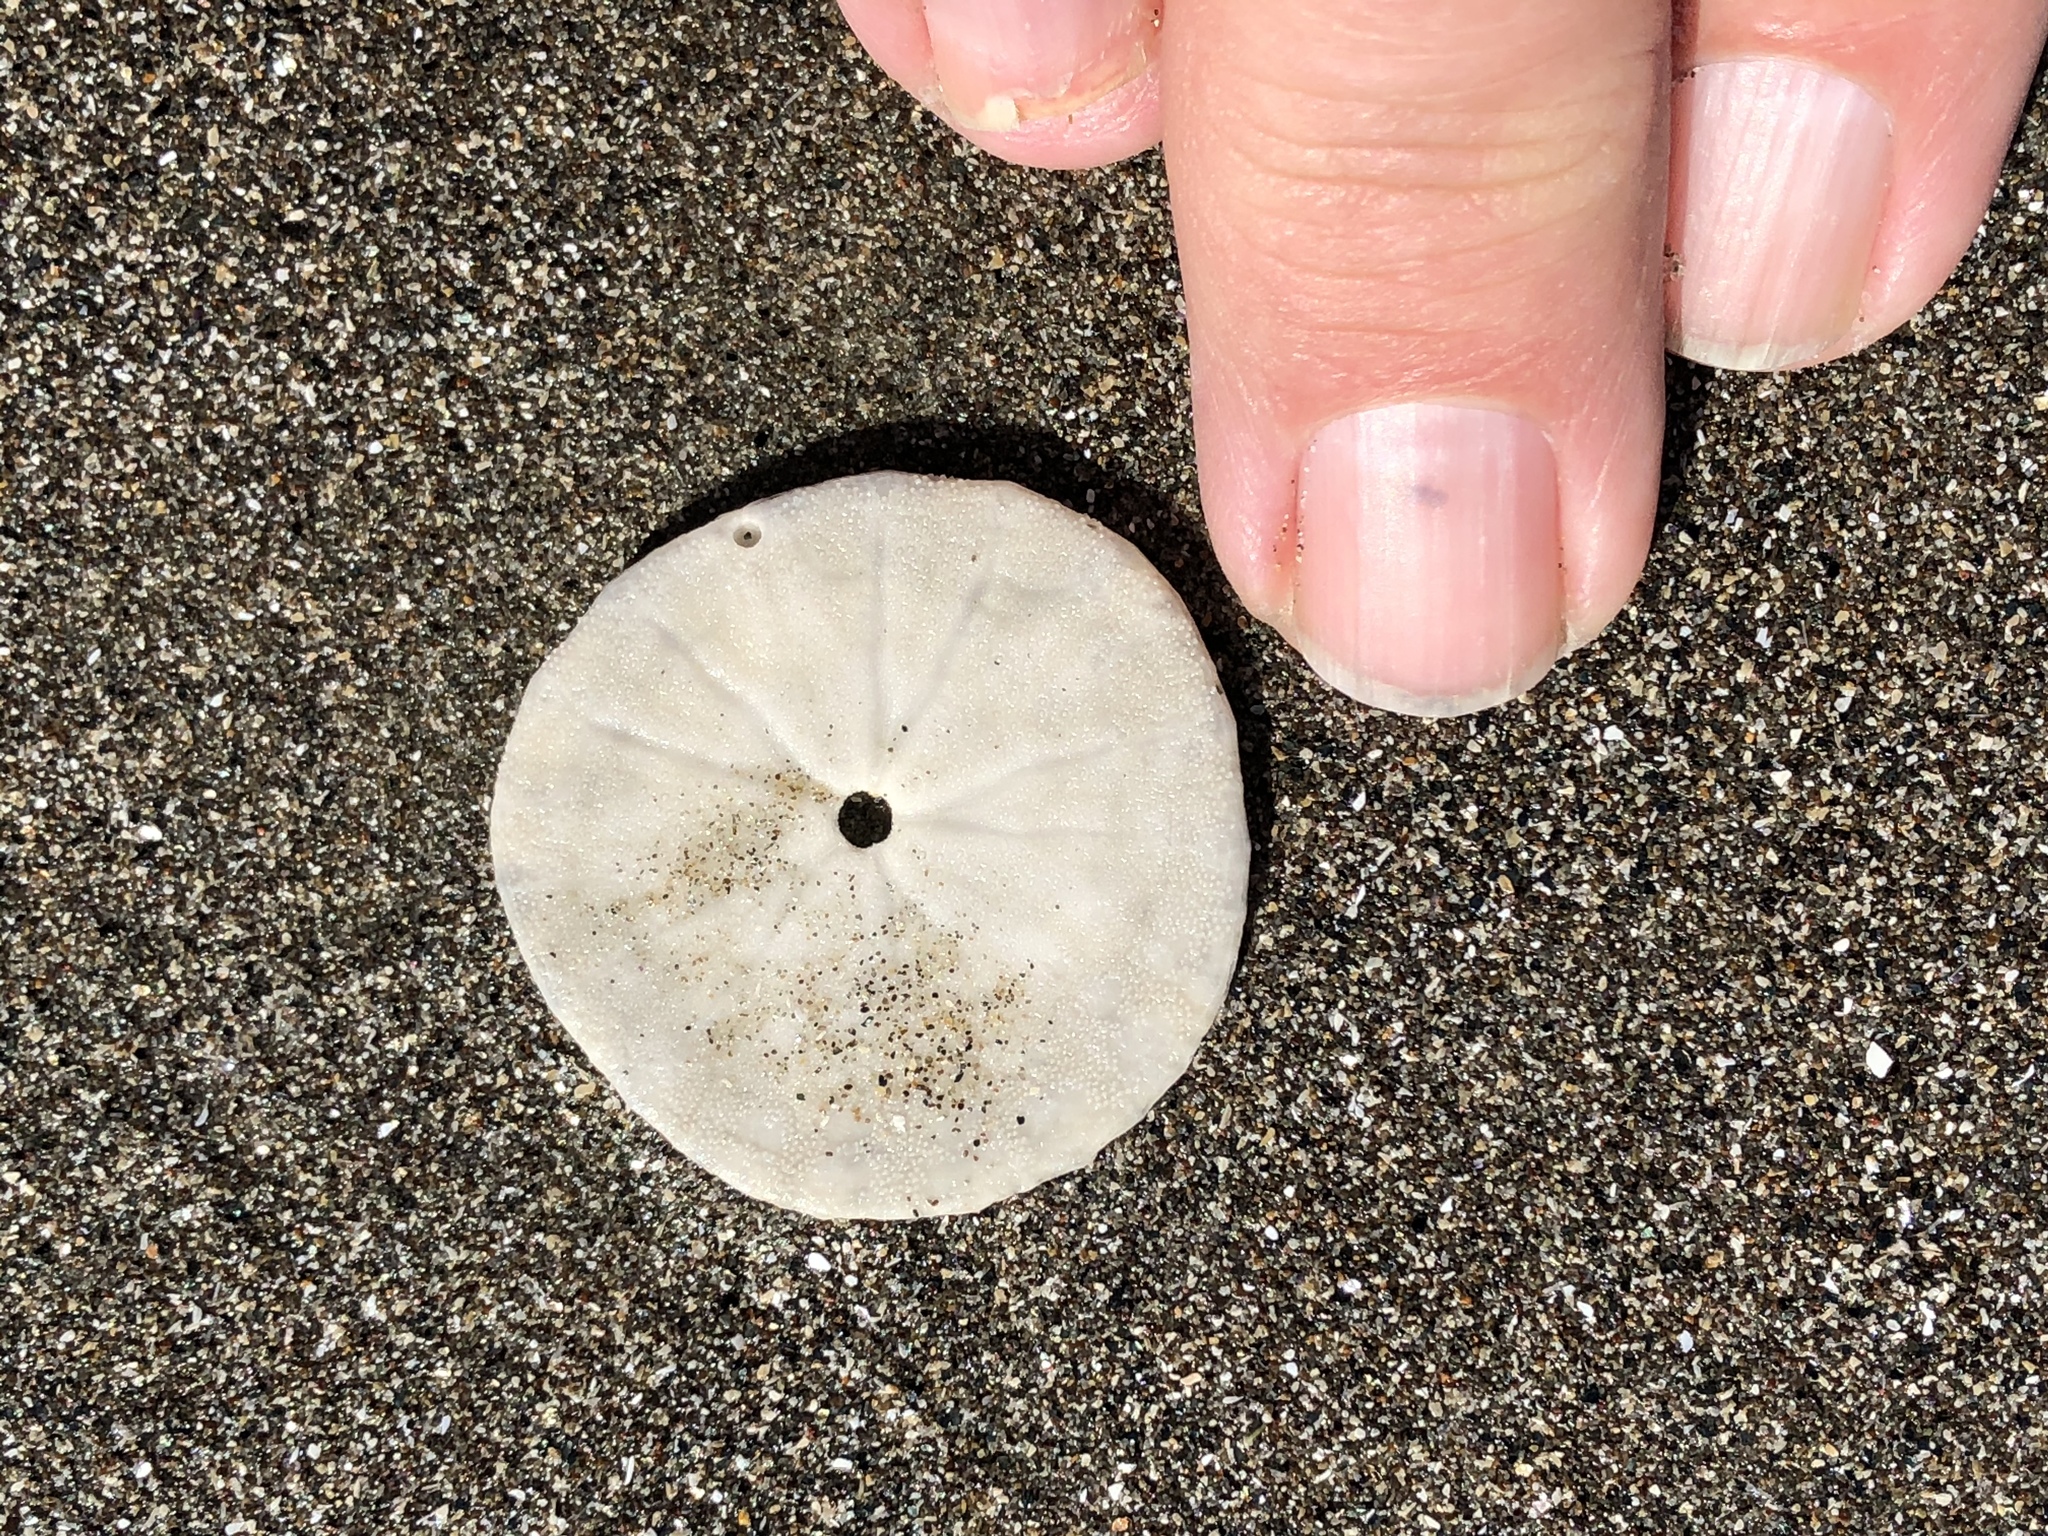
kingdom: Animalia
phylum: Echinodermata
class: Echinoidea
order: Echinolampadacea
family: Dendrasteridae
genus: Dendraster
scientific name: Dendraster excentricus
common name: Eccentric sand dollar sea urchin
